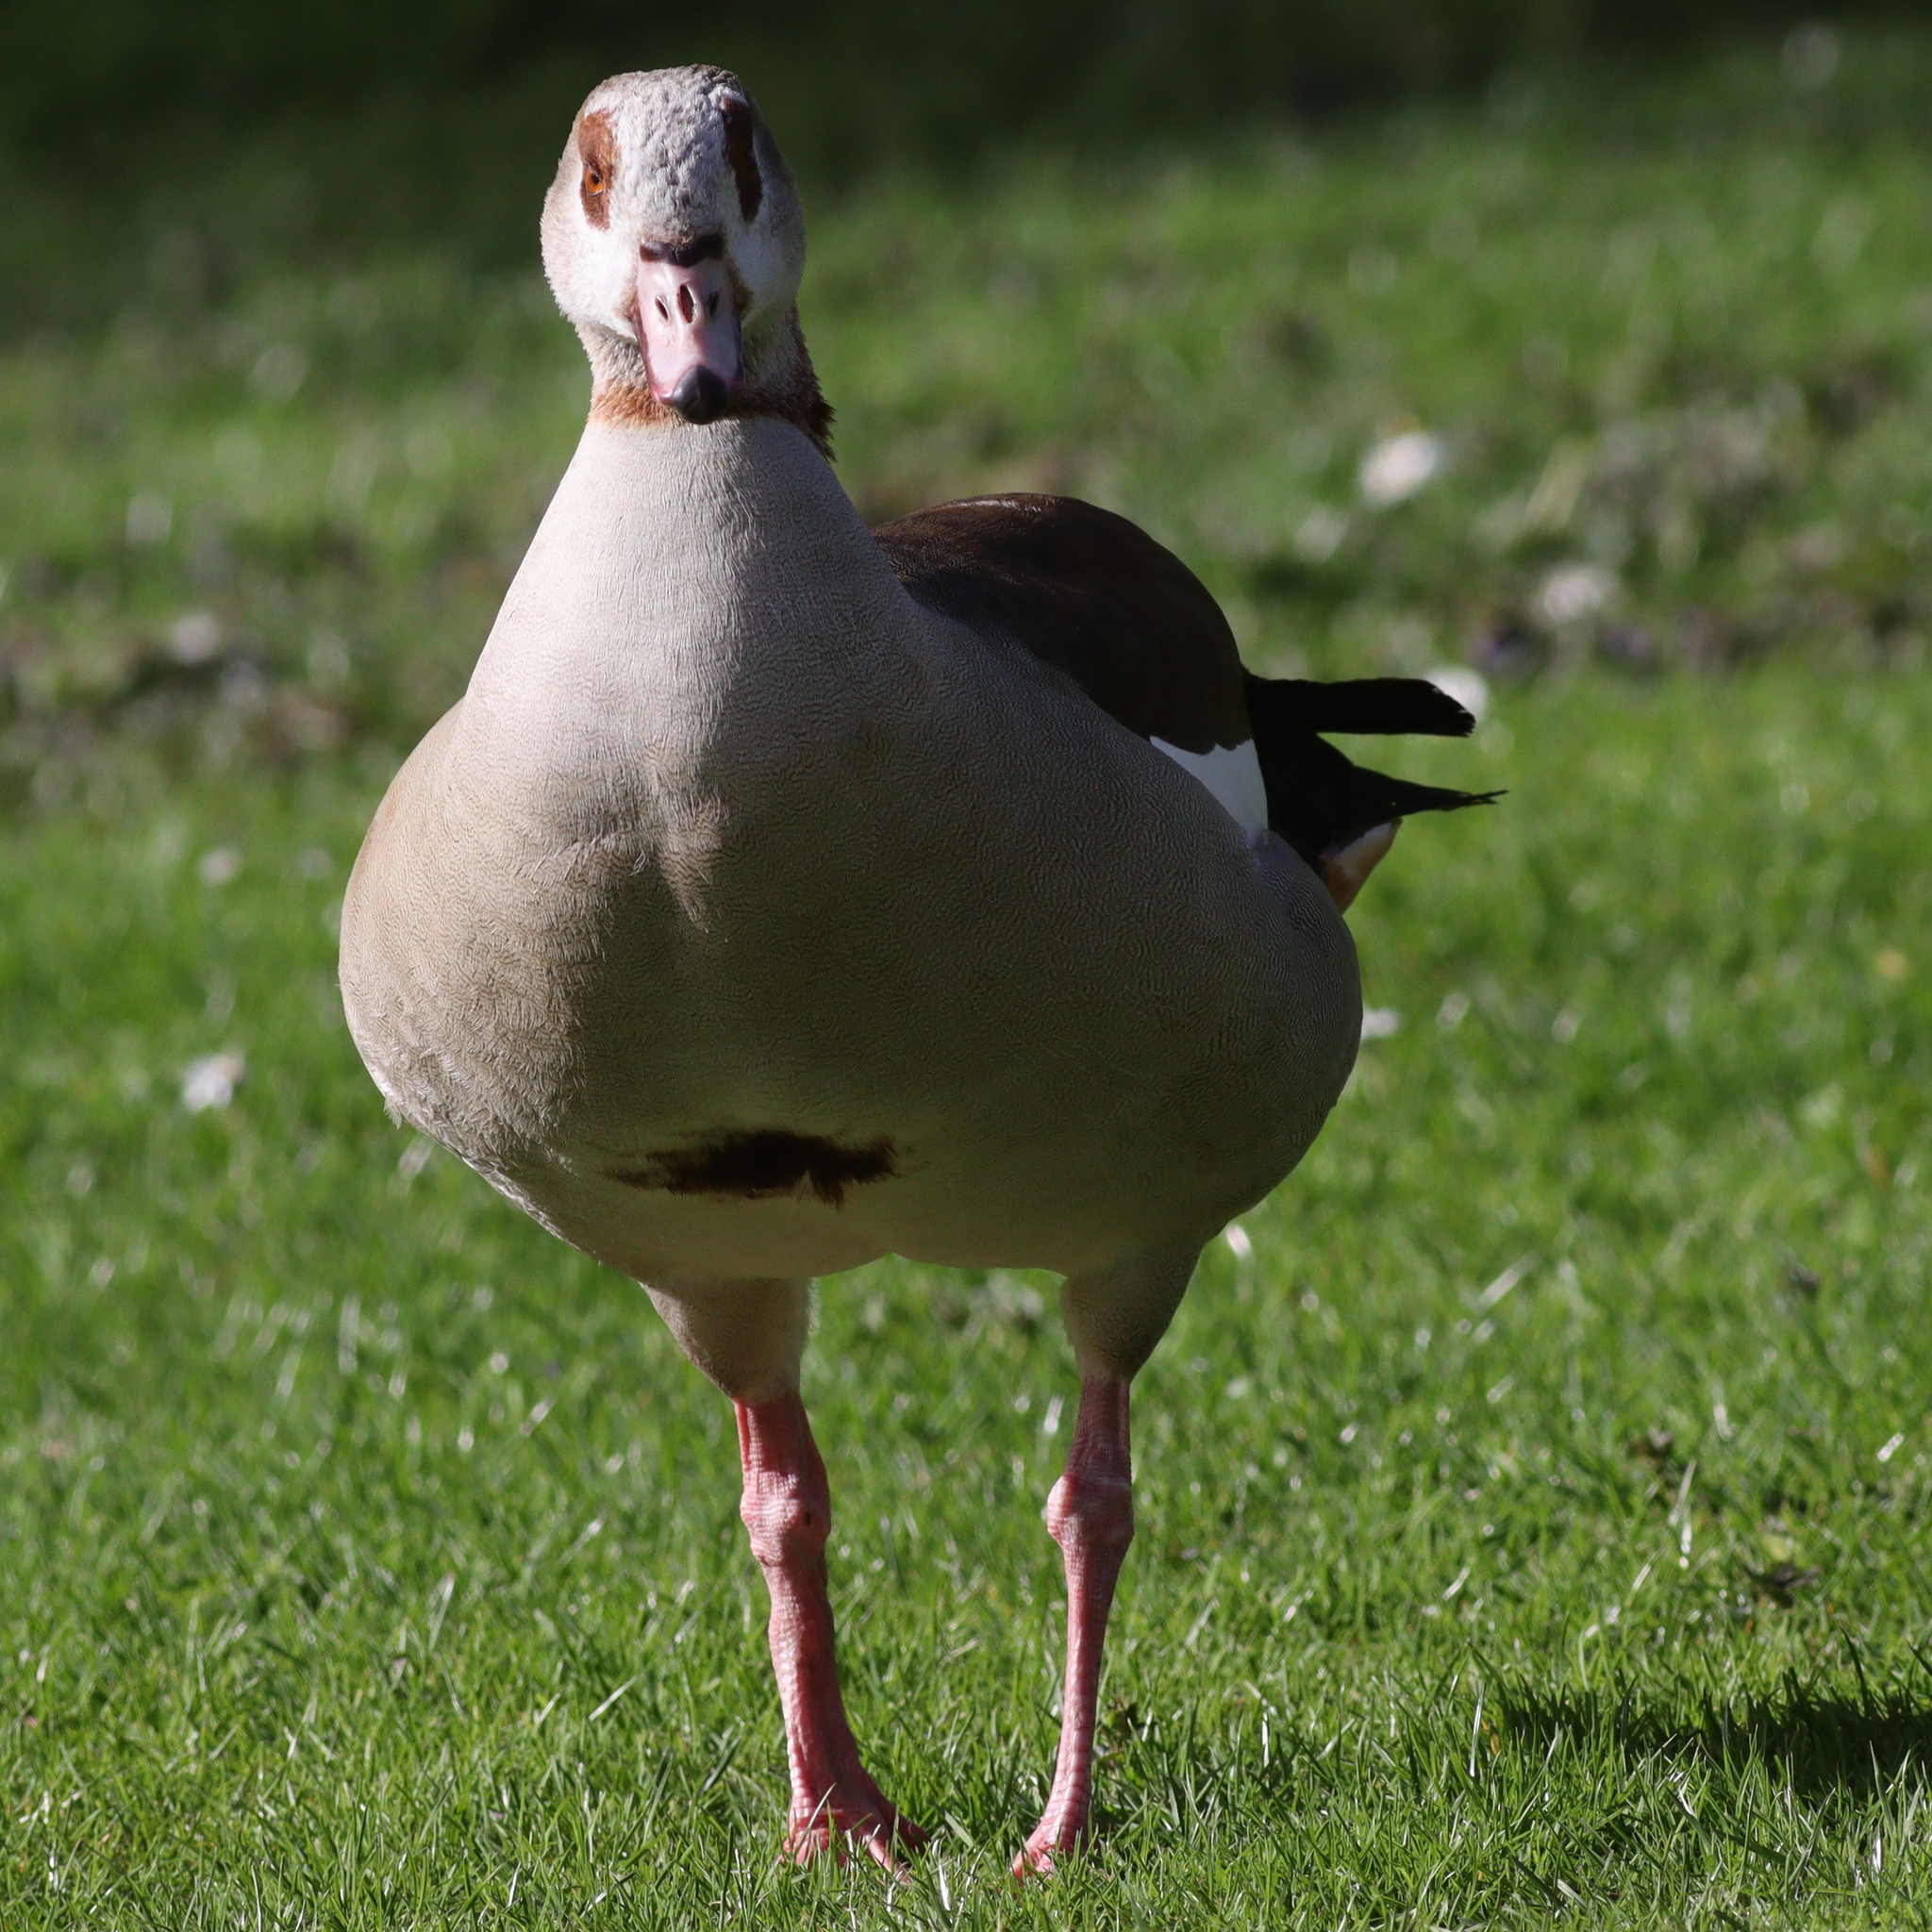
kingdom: Animalia
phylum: Chordata
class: Aves
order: Anseriformes
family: Anatidae
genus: Alopochen
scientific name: Alopochen aegyptiaca
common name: Egyptian goose
